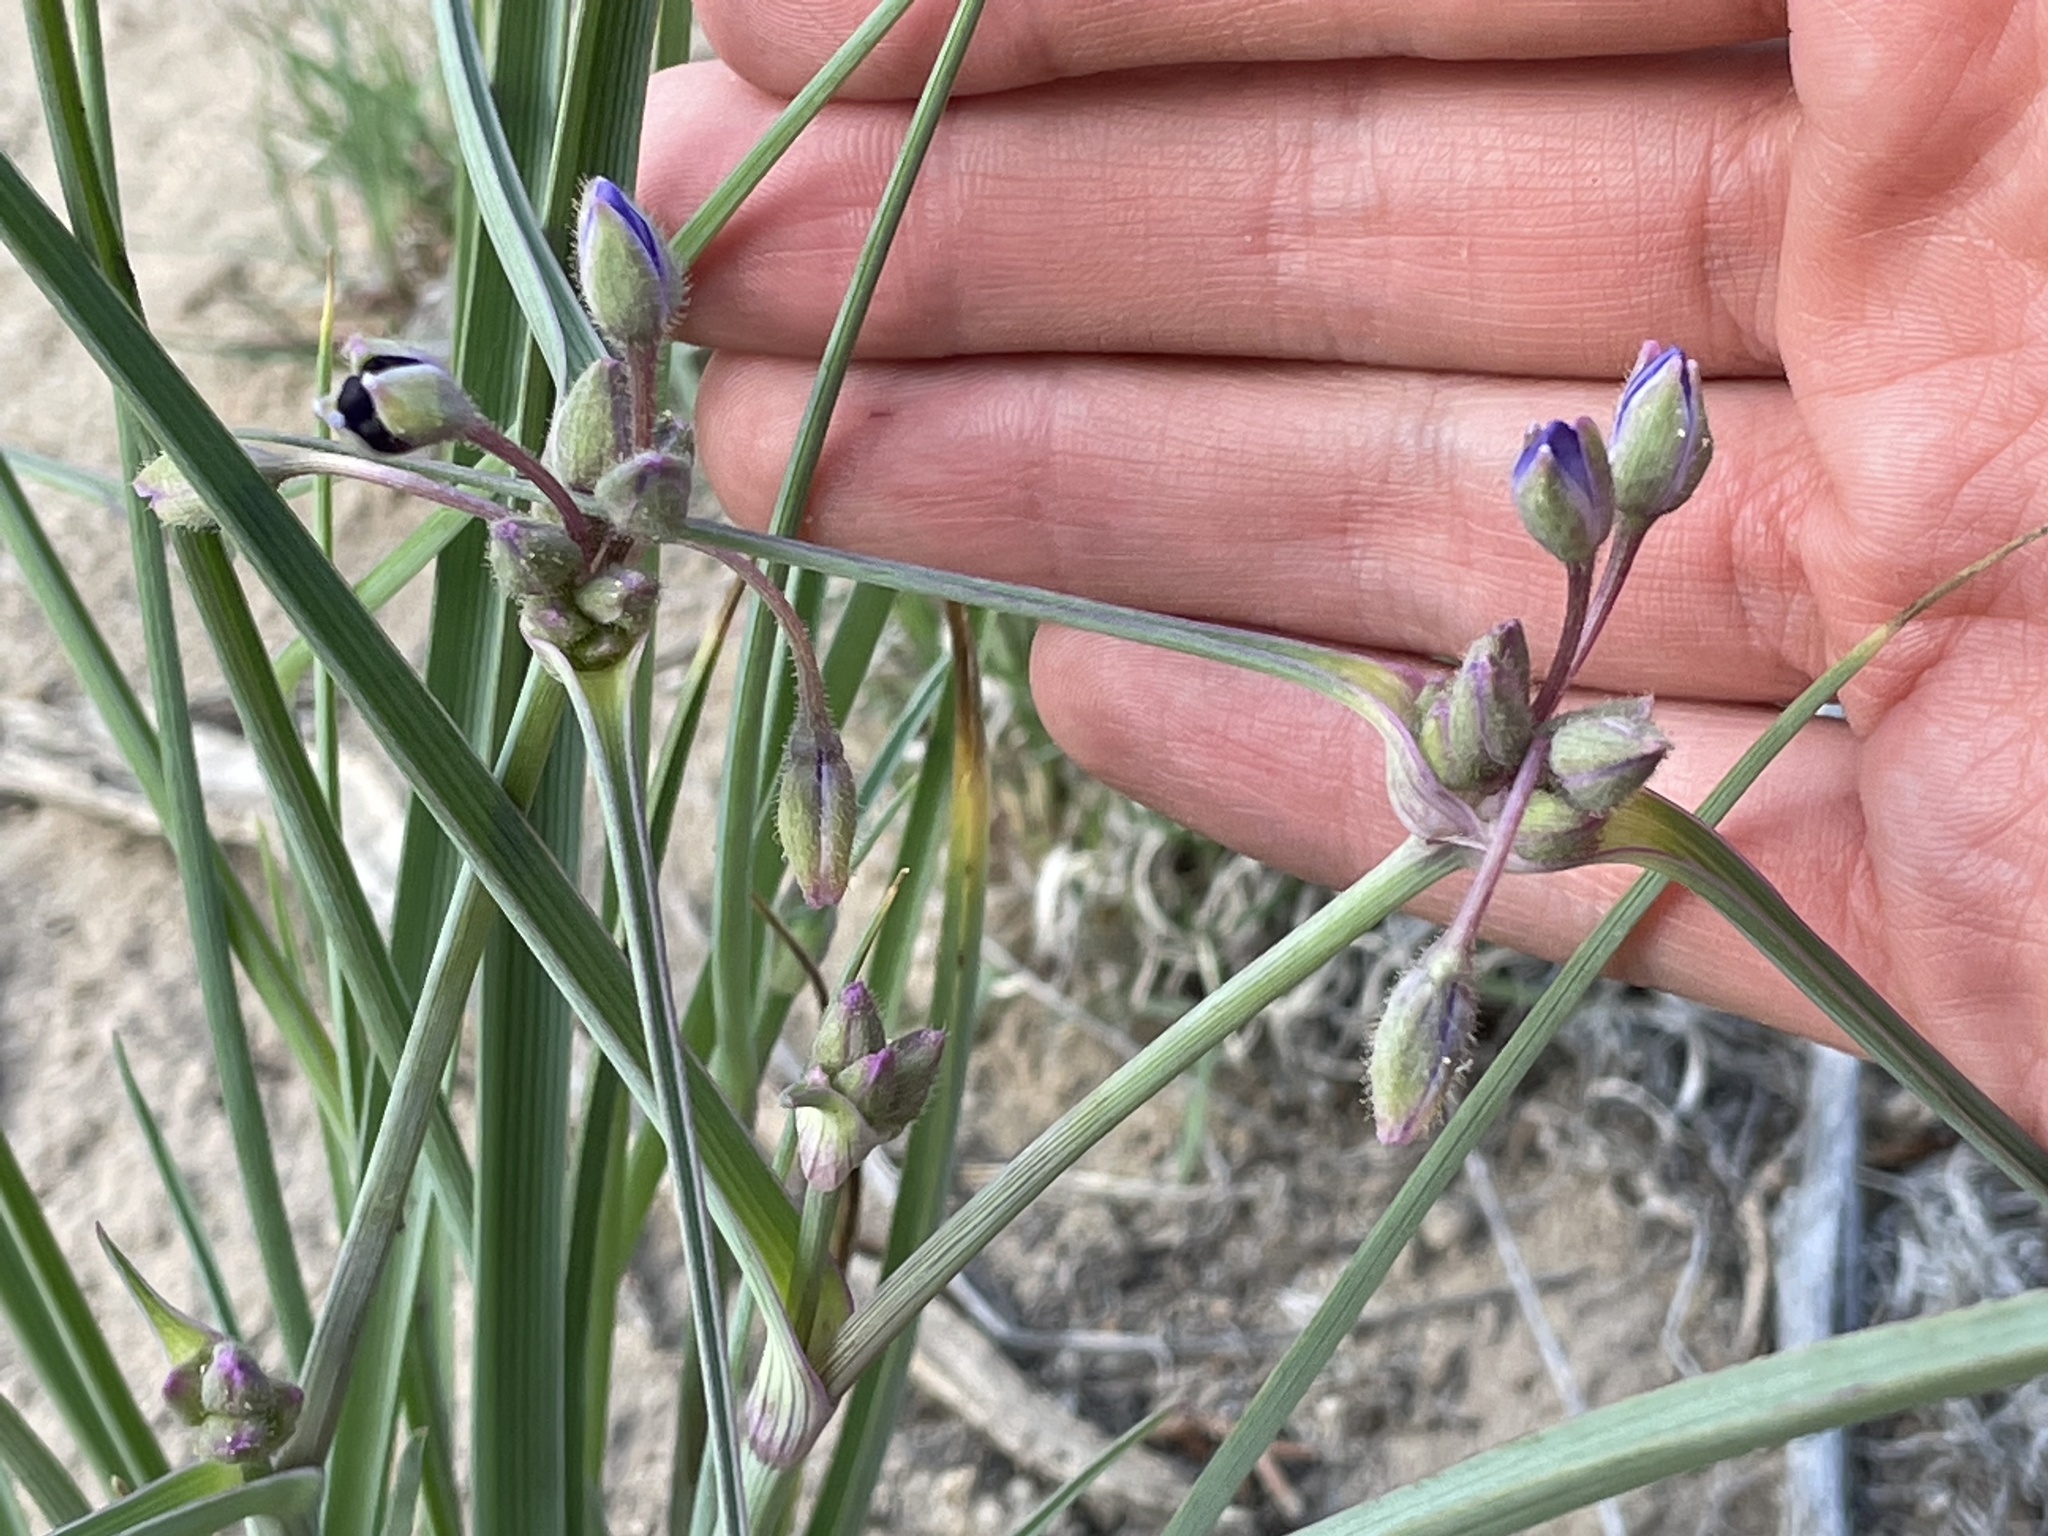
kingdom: Plantae
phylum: Tracheophyta
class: Liliopsida
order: Commelinales
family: Commelinaceae
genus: Tradescantia
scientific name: Tradescantia occidentalis
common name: Prairie spiderwort
